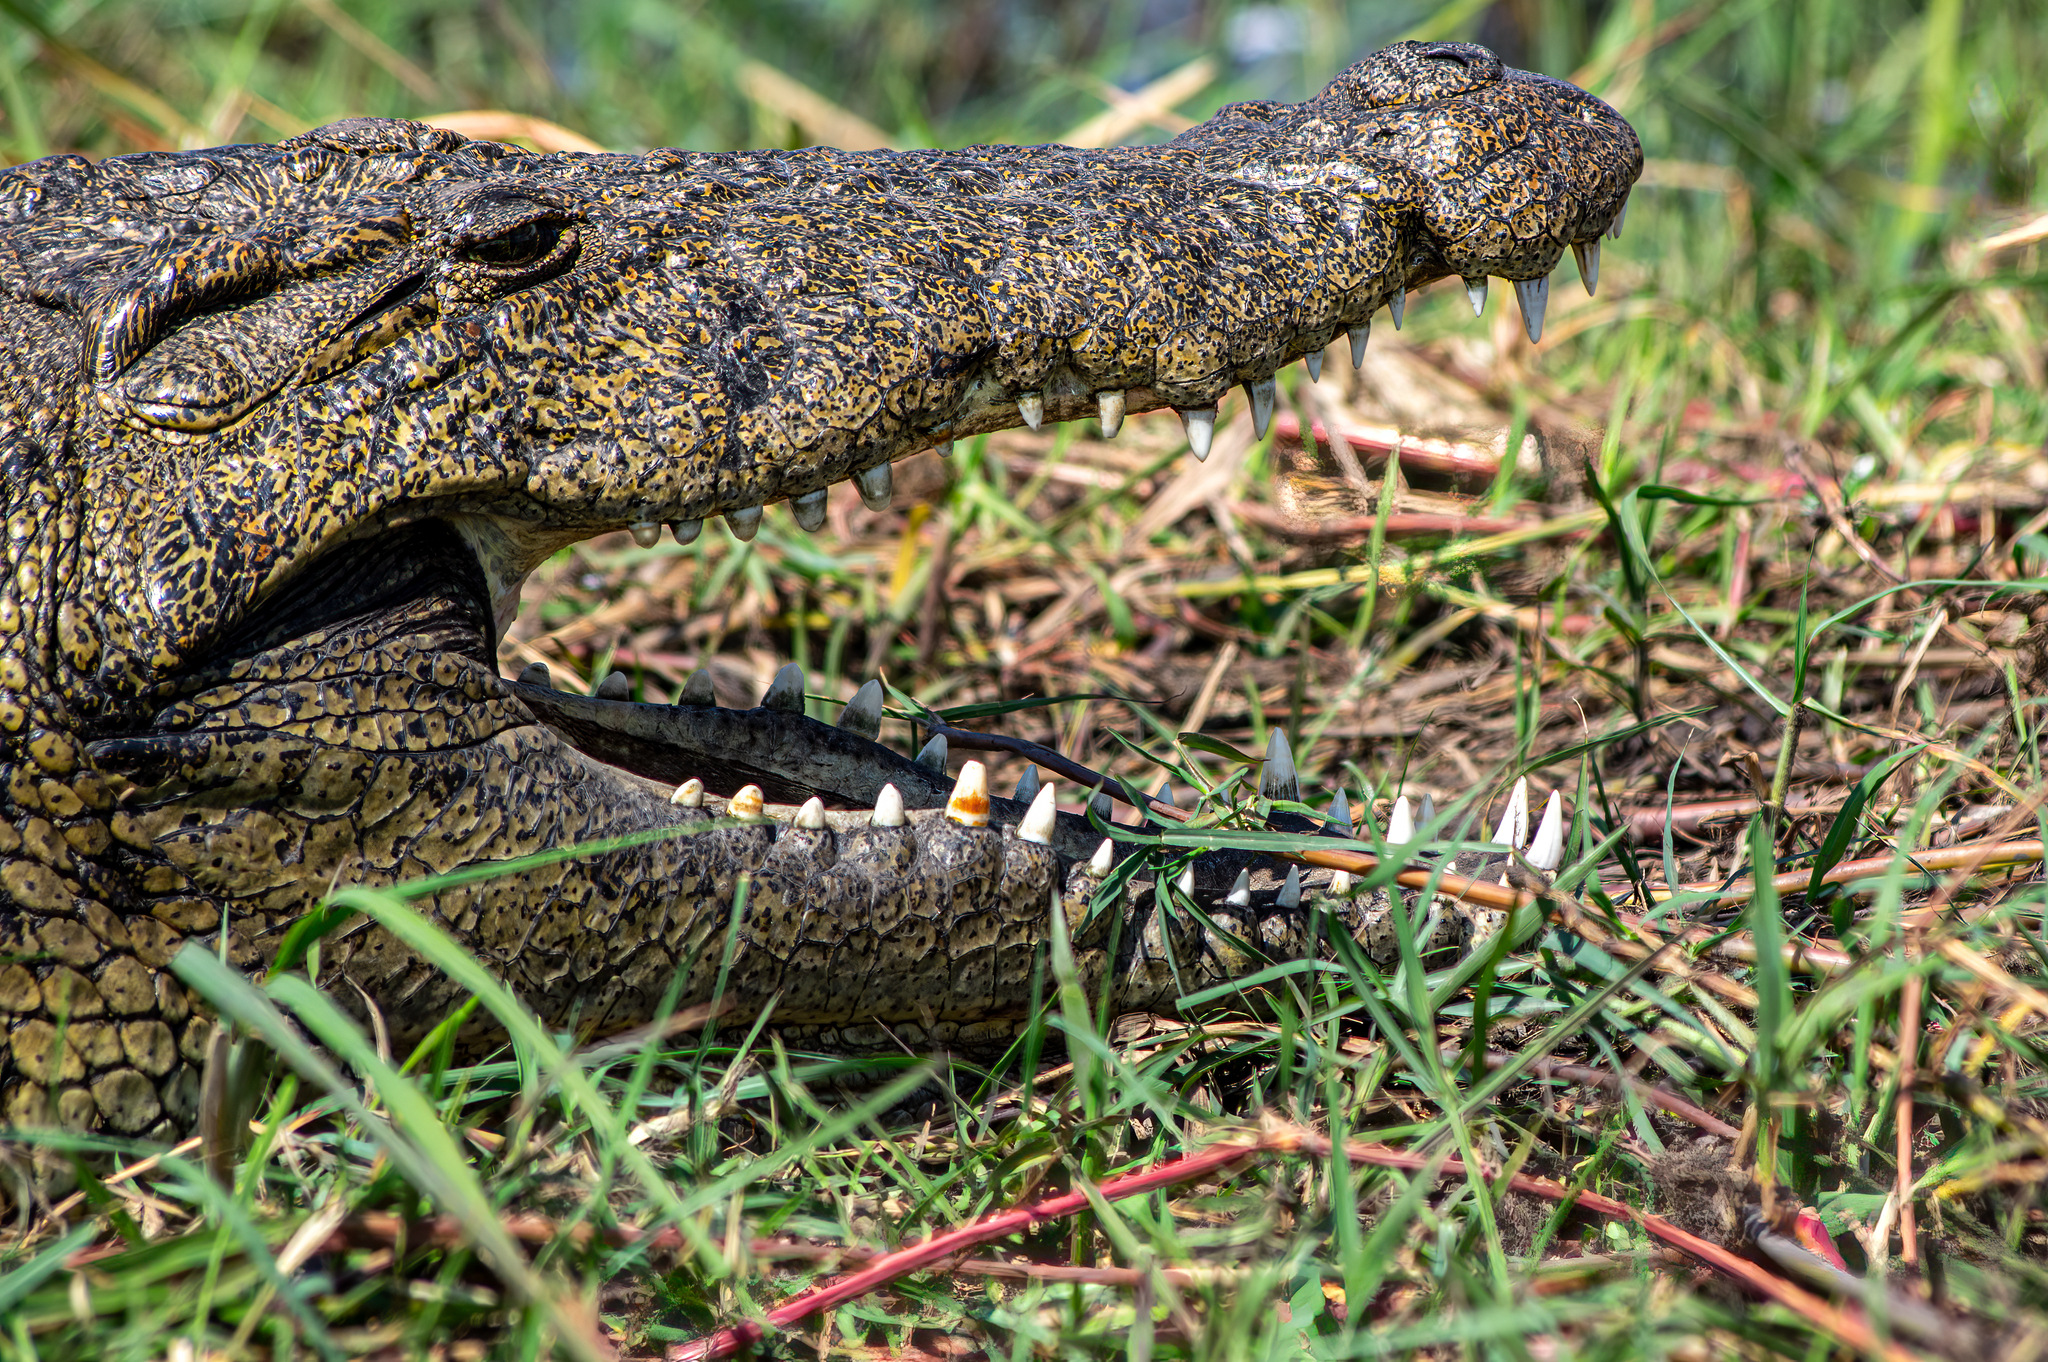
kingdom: Animalia
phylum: Chordata
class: Crocodylia
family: Crocodylidae
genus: Crocodylus
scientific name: Crocodylus niloticus
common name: Nile crocodile
